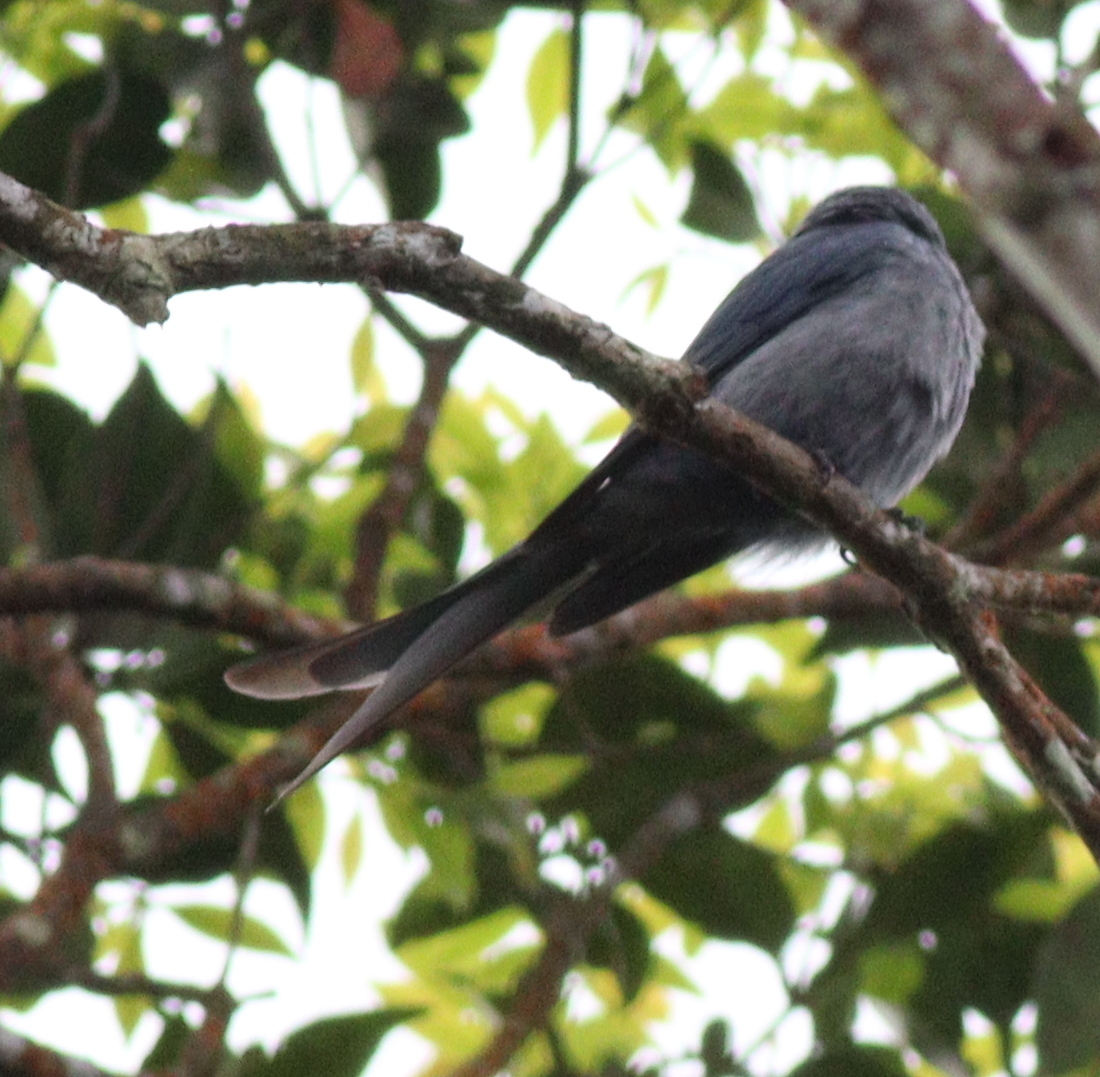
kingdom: Animalia
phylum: Chordata
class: Aves
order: Passeriformes
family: Dicruridae
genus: Dicrurus
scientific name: Dicrurus leucophaeus
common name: Ashy drongo
